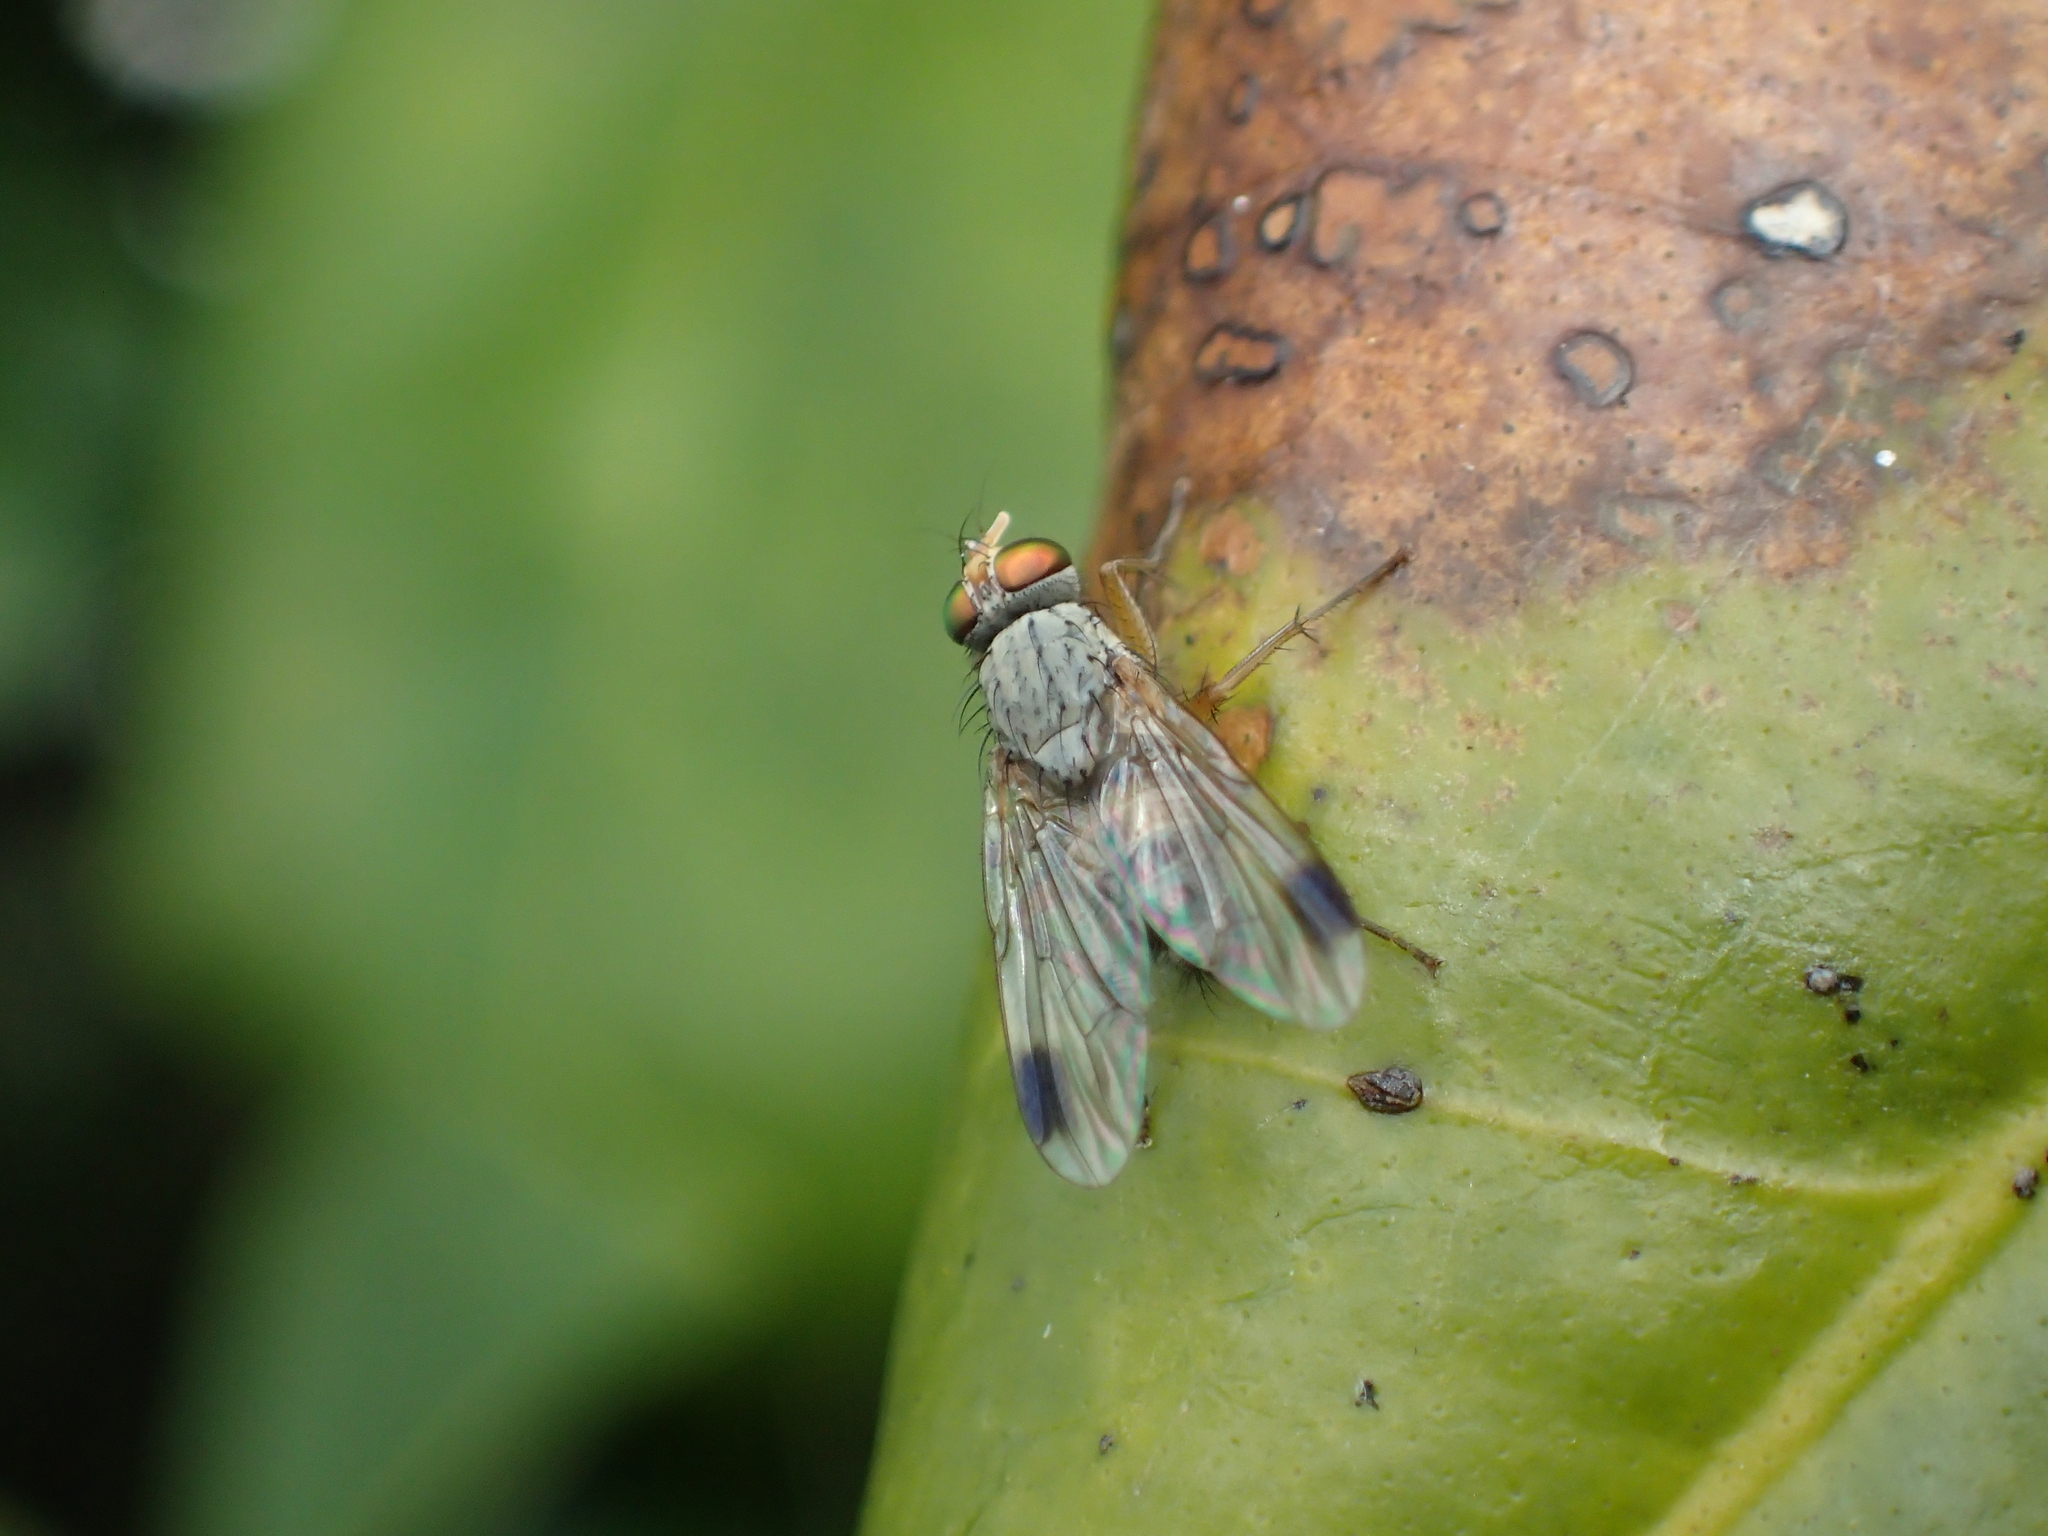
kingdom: Animalia
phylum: Arthropoda
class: Insecta
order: Diptera
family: Muscidae
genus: Pygophora
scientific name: Pygophora apicalis
